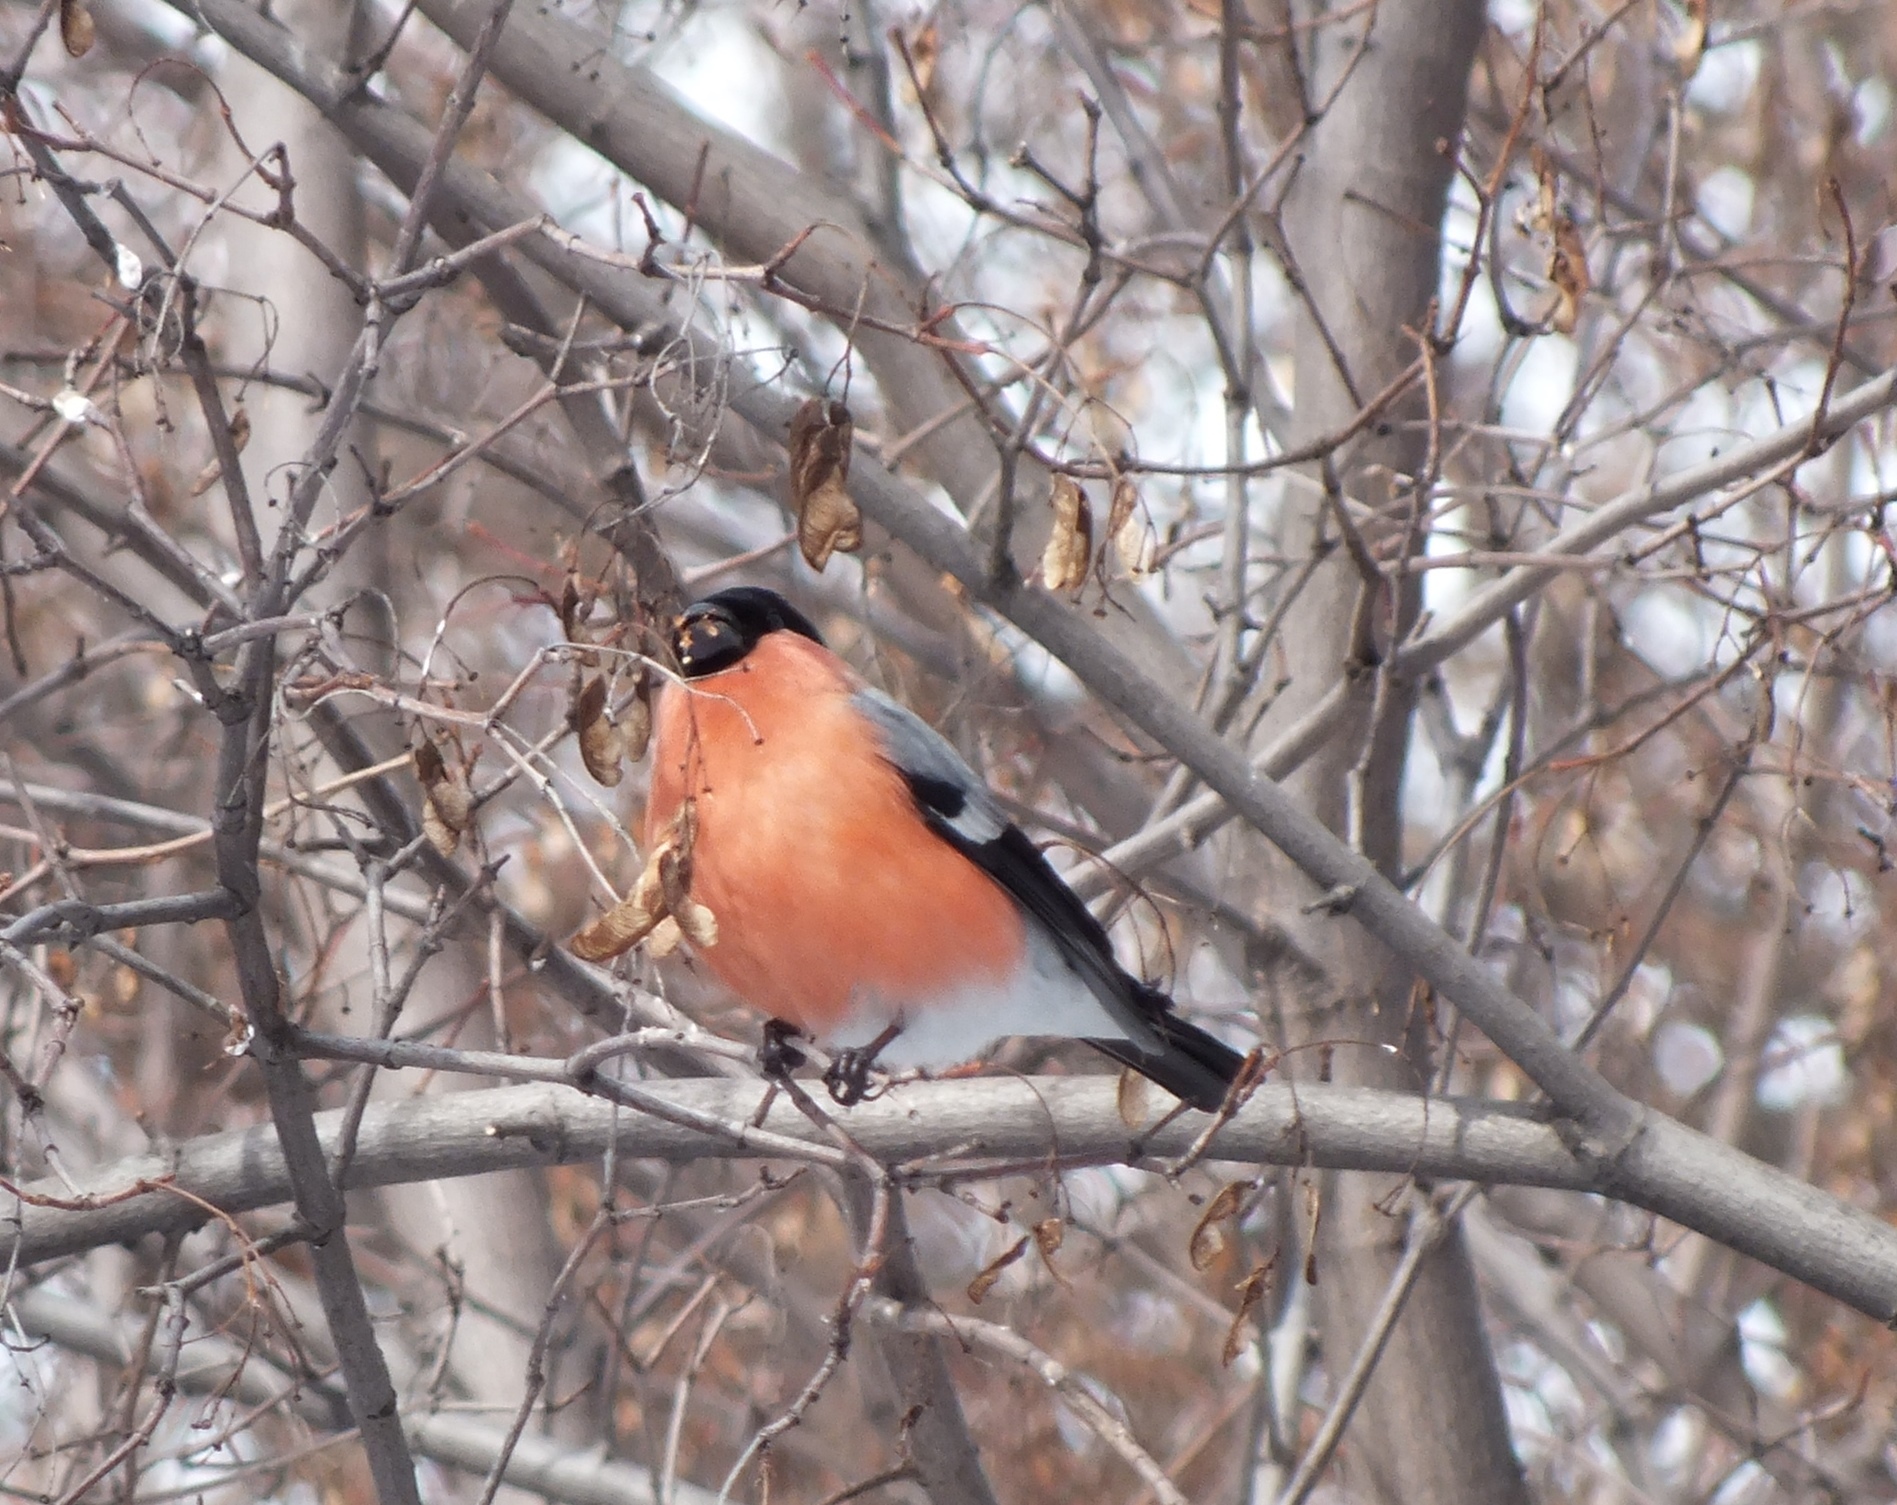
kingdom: Animalia
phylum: Chordata
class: Aves
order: Passeriformes
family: Fringillidae
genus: Pyrrhula
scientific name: Pyrrhula pyrrhula
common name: Eurasian bullfinch
